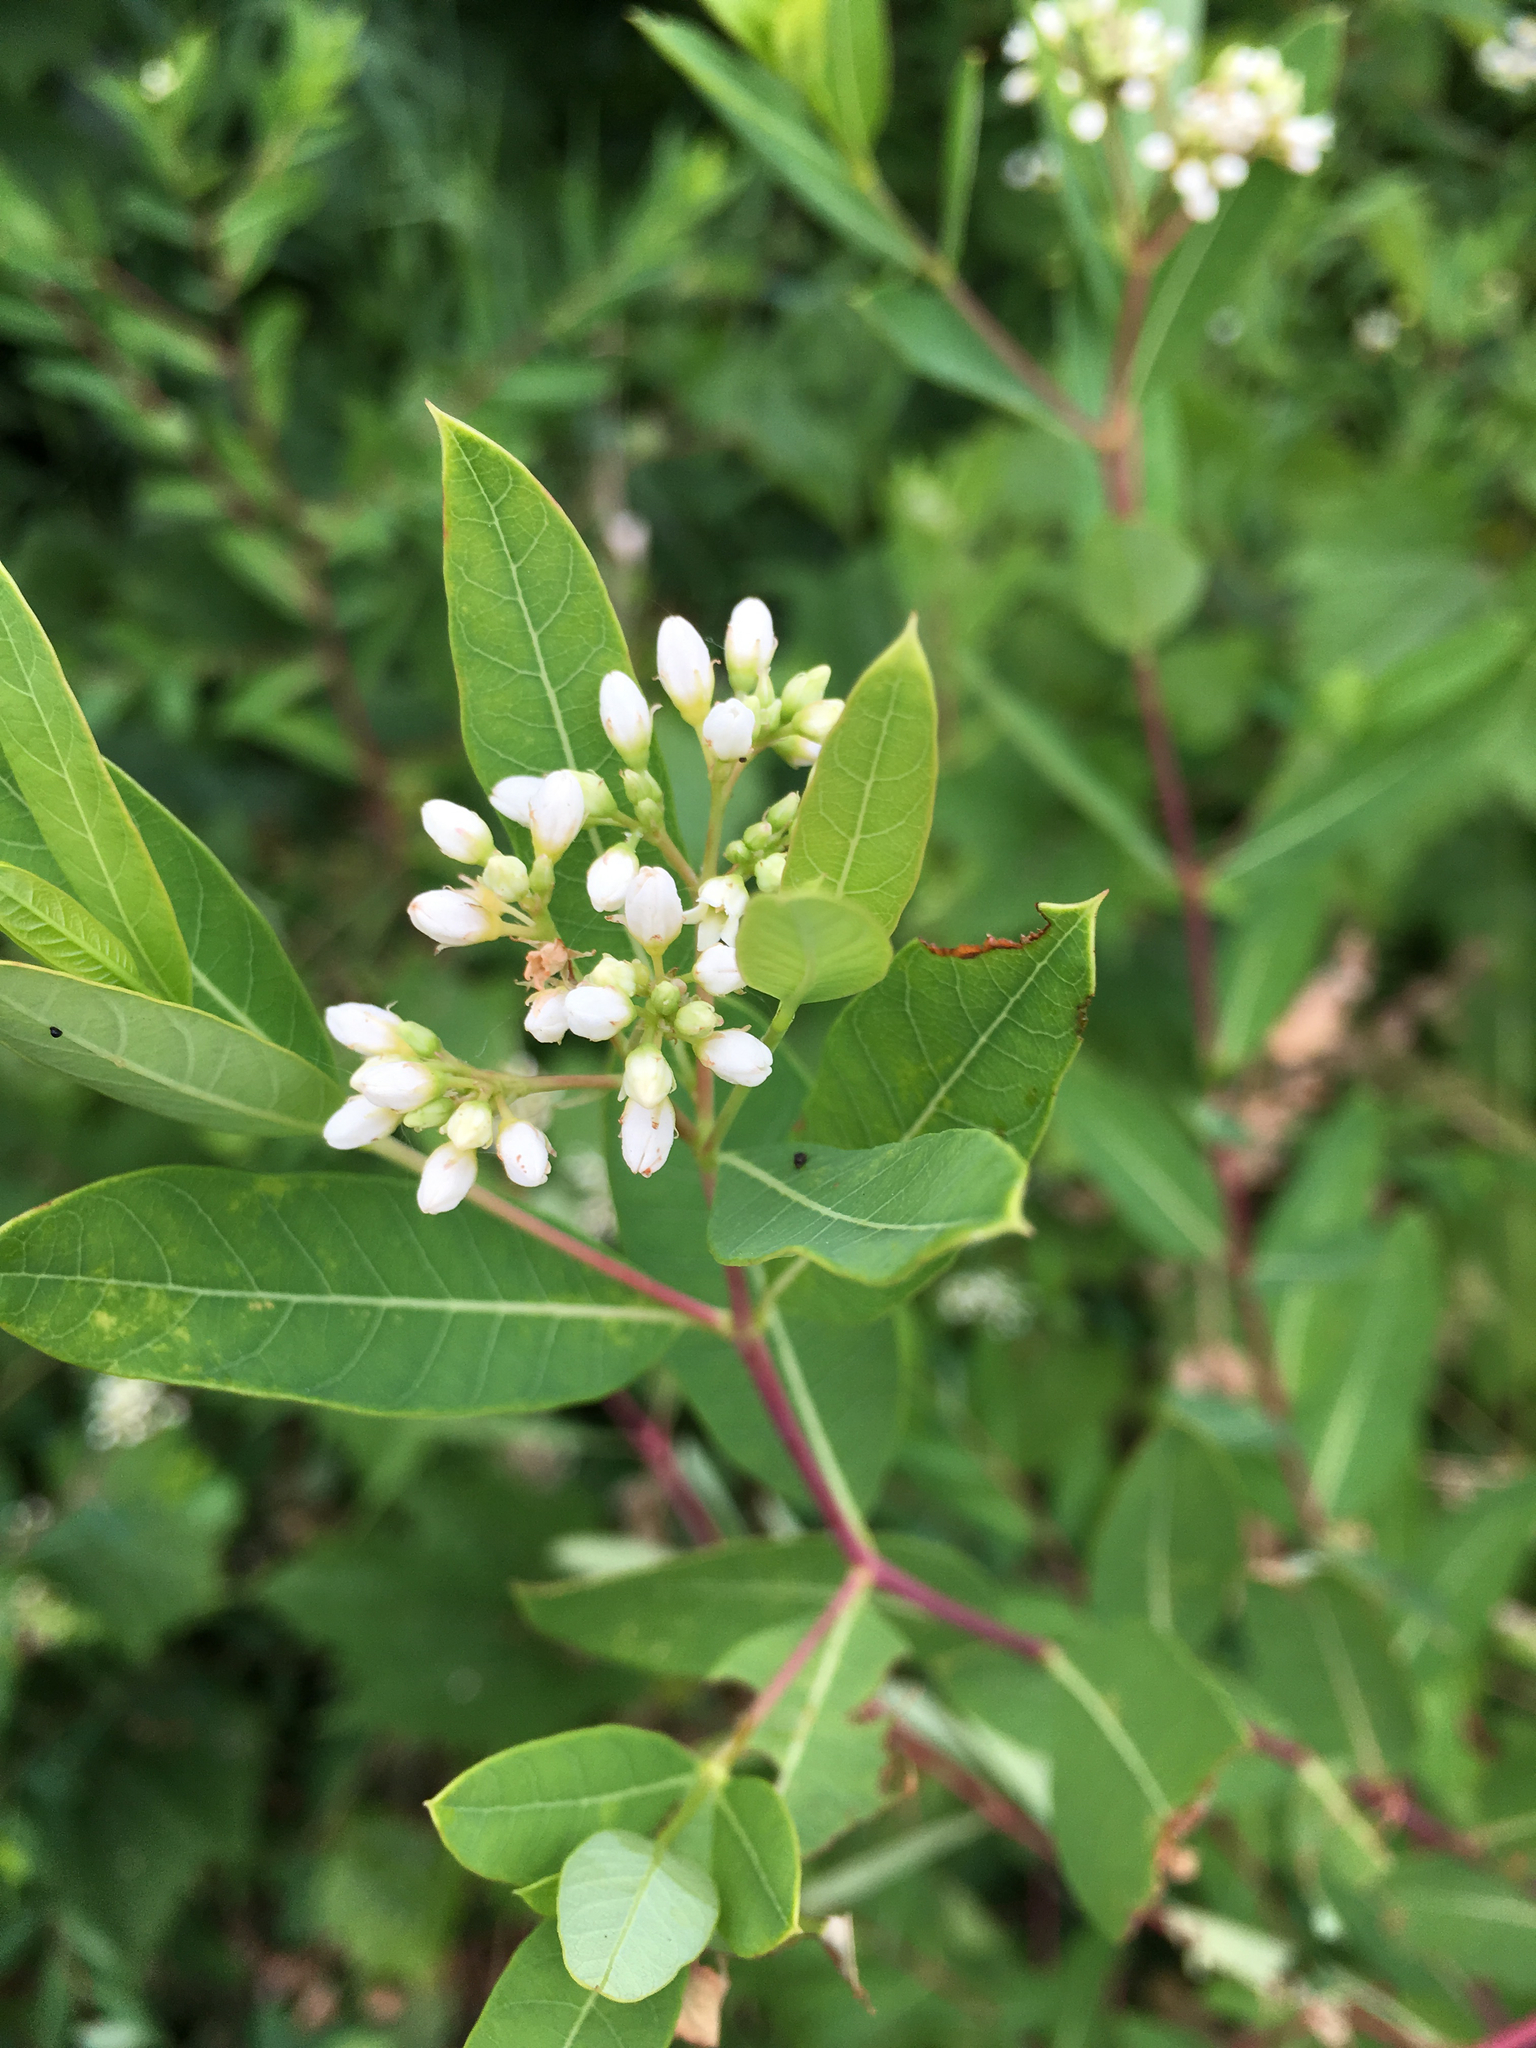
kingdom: Plantae
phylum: Tracheophyta
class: Magnoliopsida
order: Gentianales
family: Apocynaceae
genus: Apocynum
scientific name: Apocynum cannabinum
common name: Hemp dogbane
